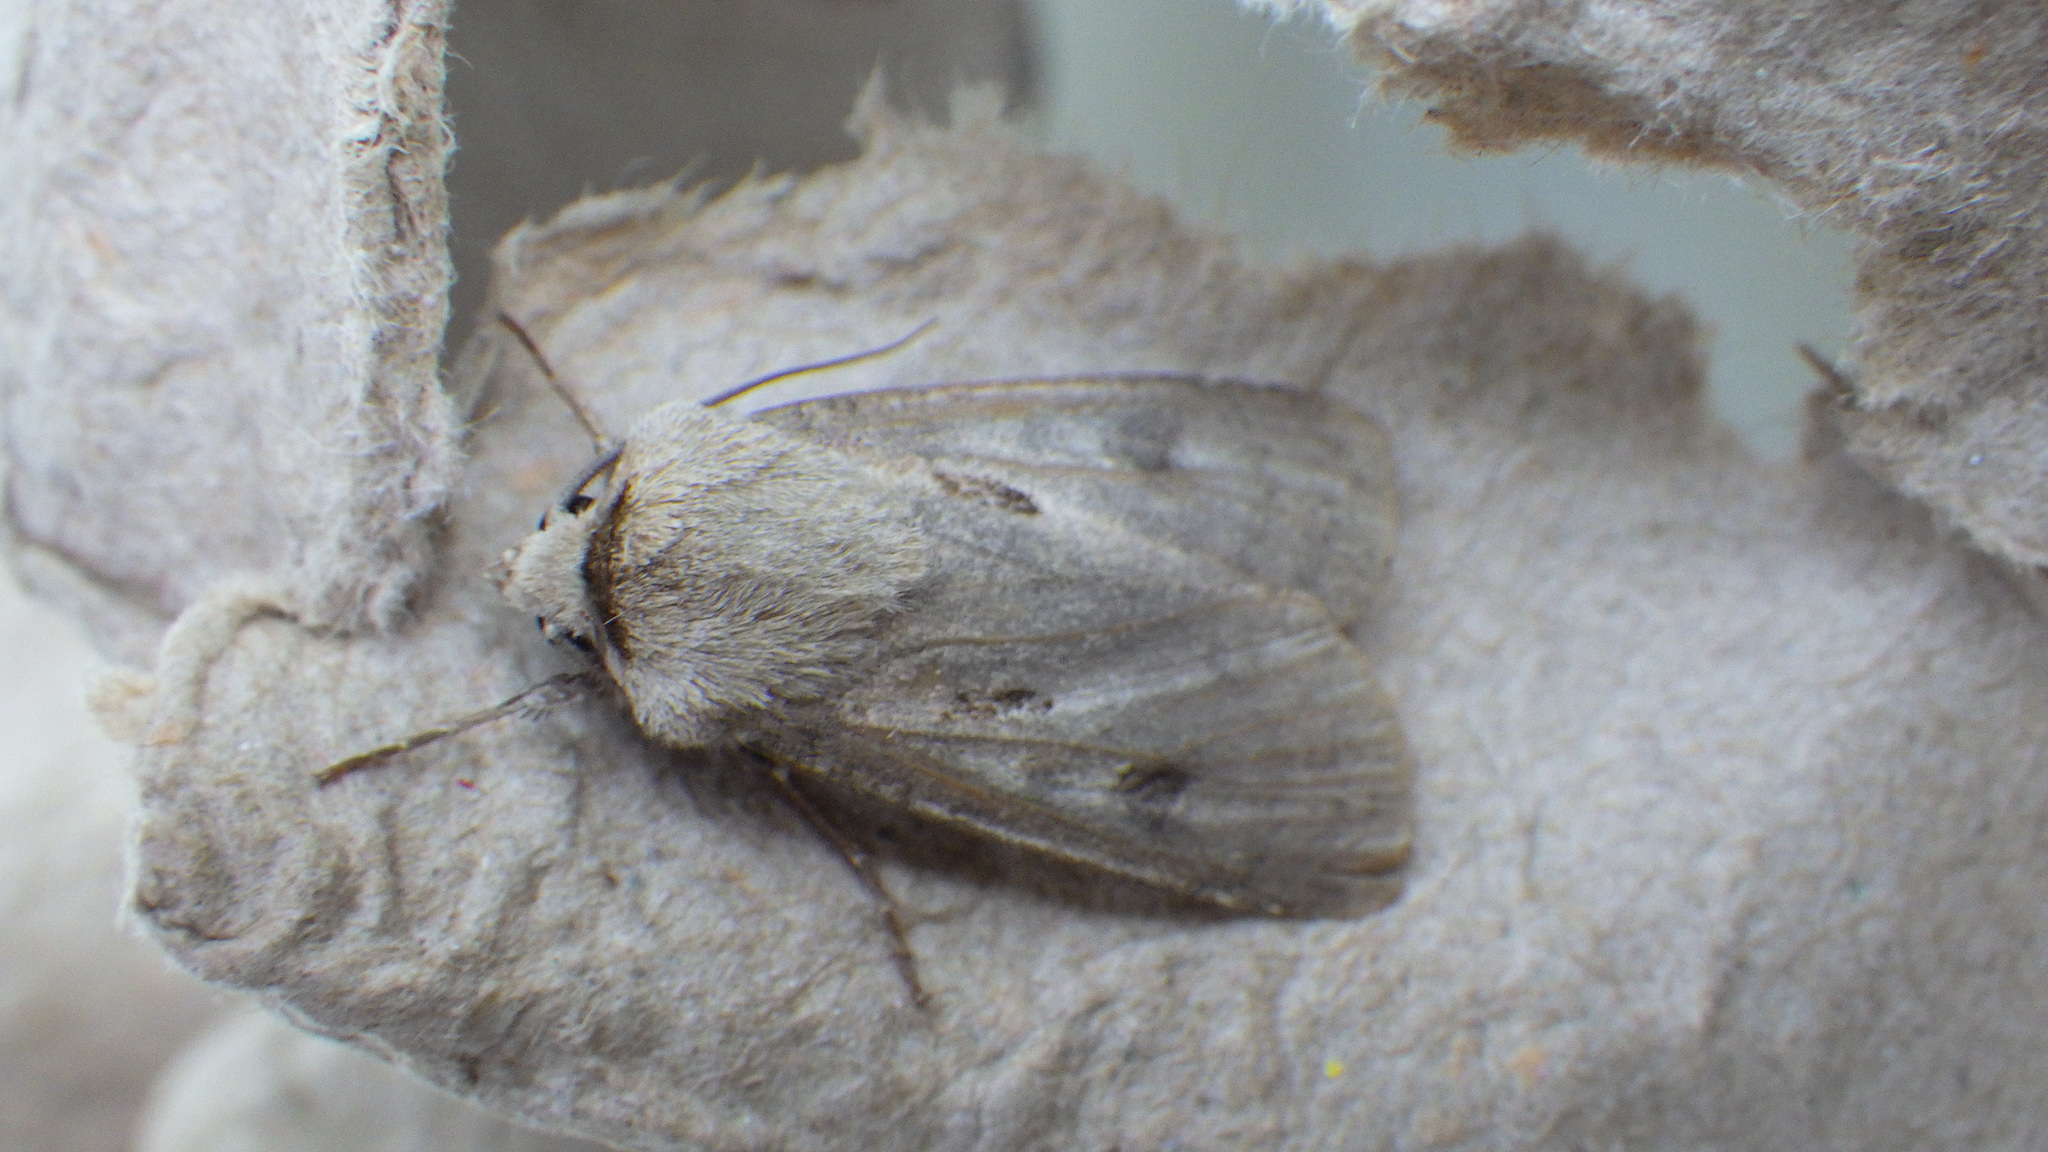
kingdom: Animalia
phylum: Arthropoda
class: Insecta
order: Lepidoptera
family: Noctuidae
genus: Agrotis
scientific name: Agrotis exclamationis
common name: Heart and dart
